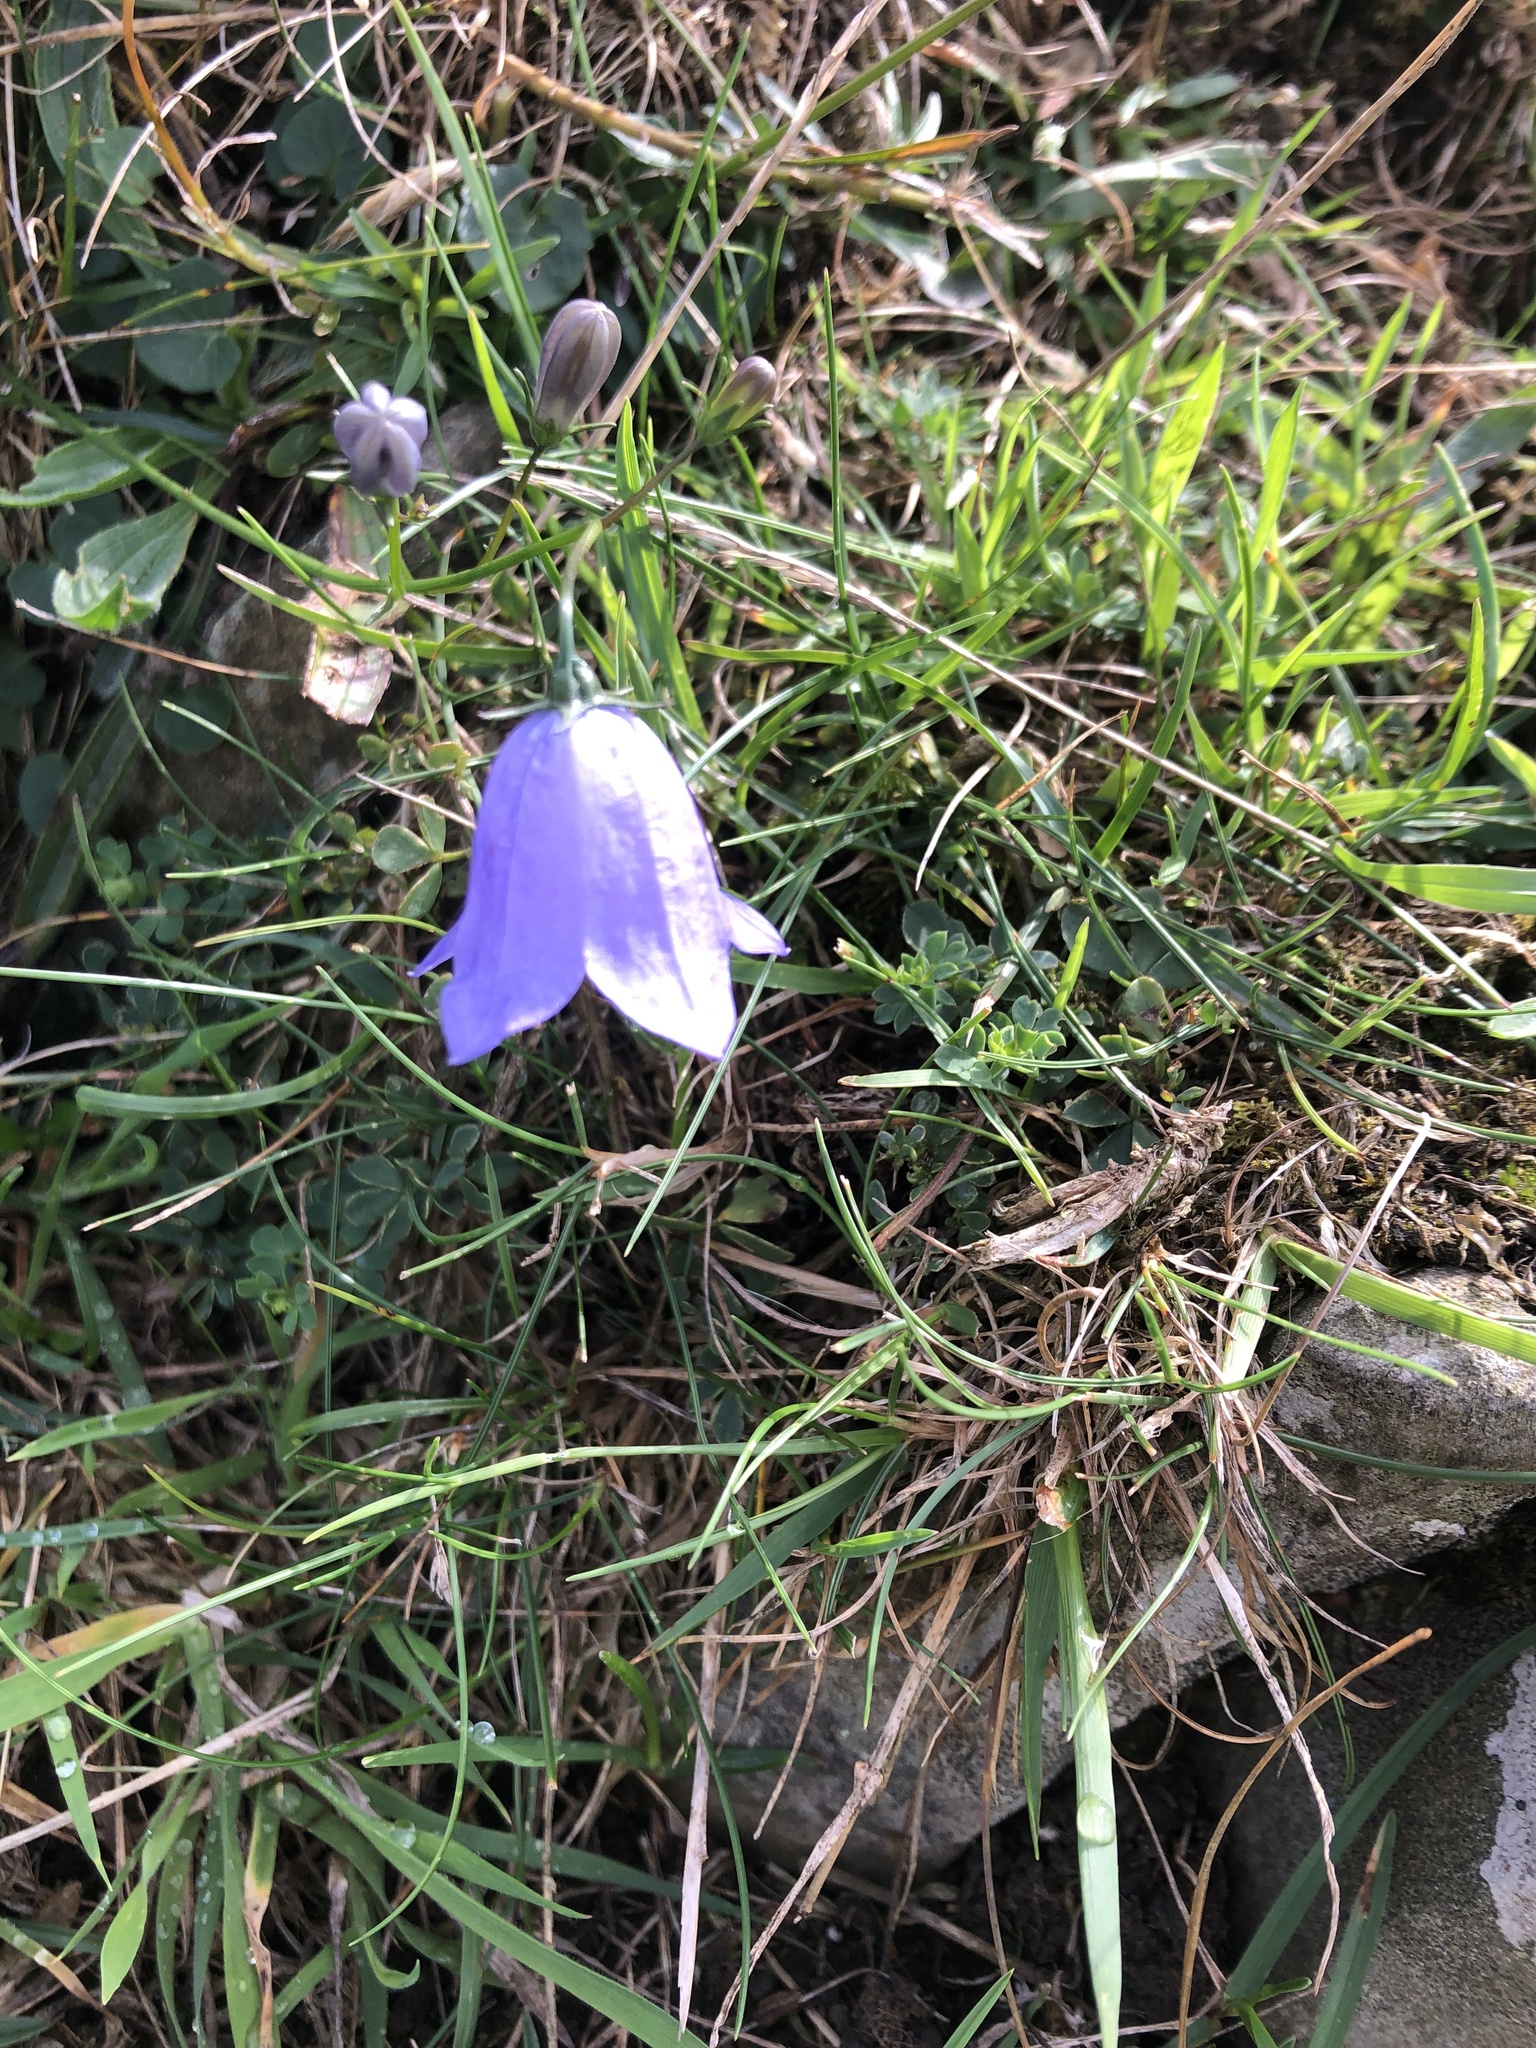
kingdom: Plantae
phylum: Tracheophyta
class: Magnoliopsida
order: Asterales
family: Campanulaceae
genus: Campanula
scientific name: Campanula rotundifolia
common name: Harebell
